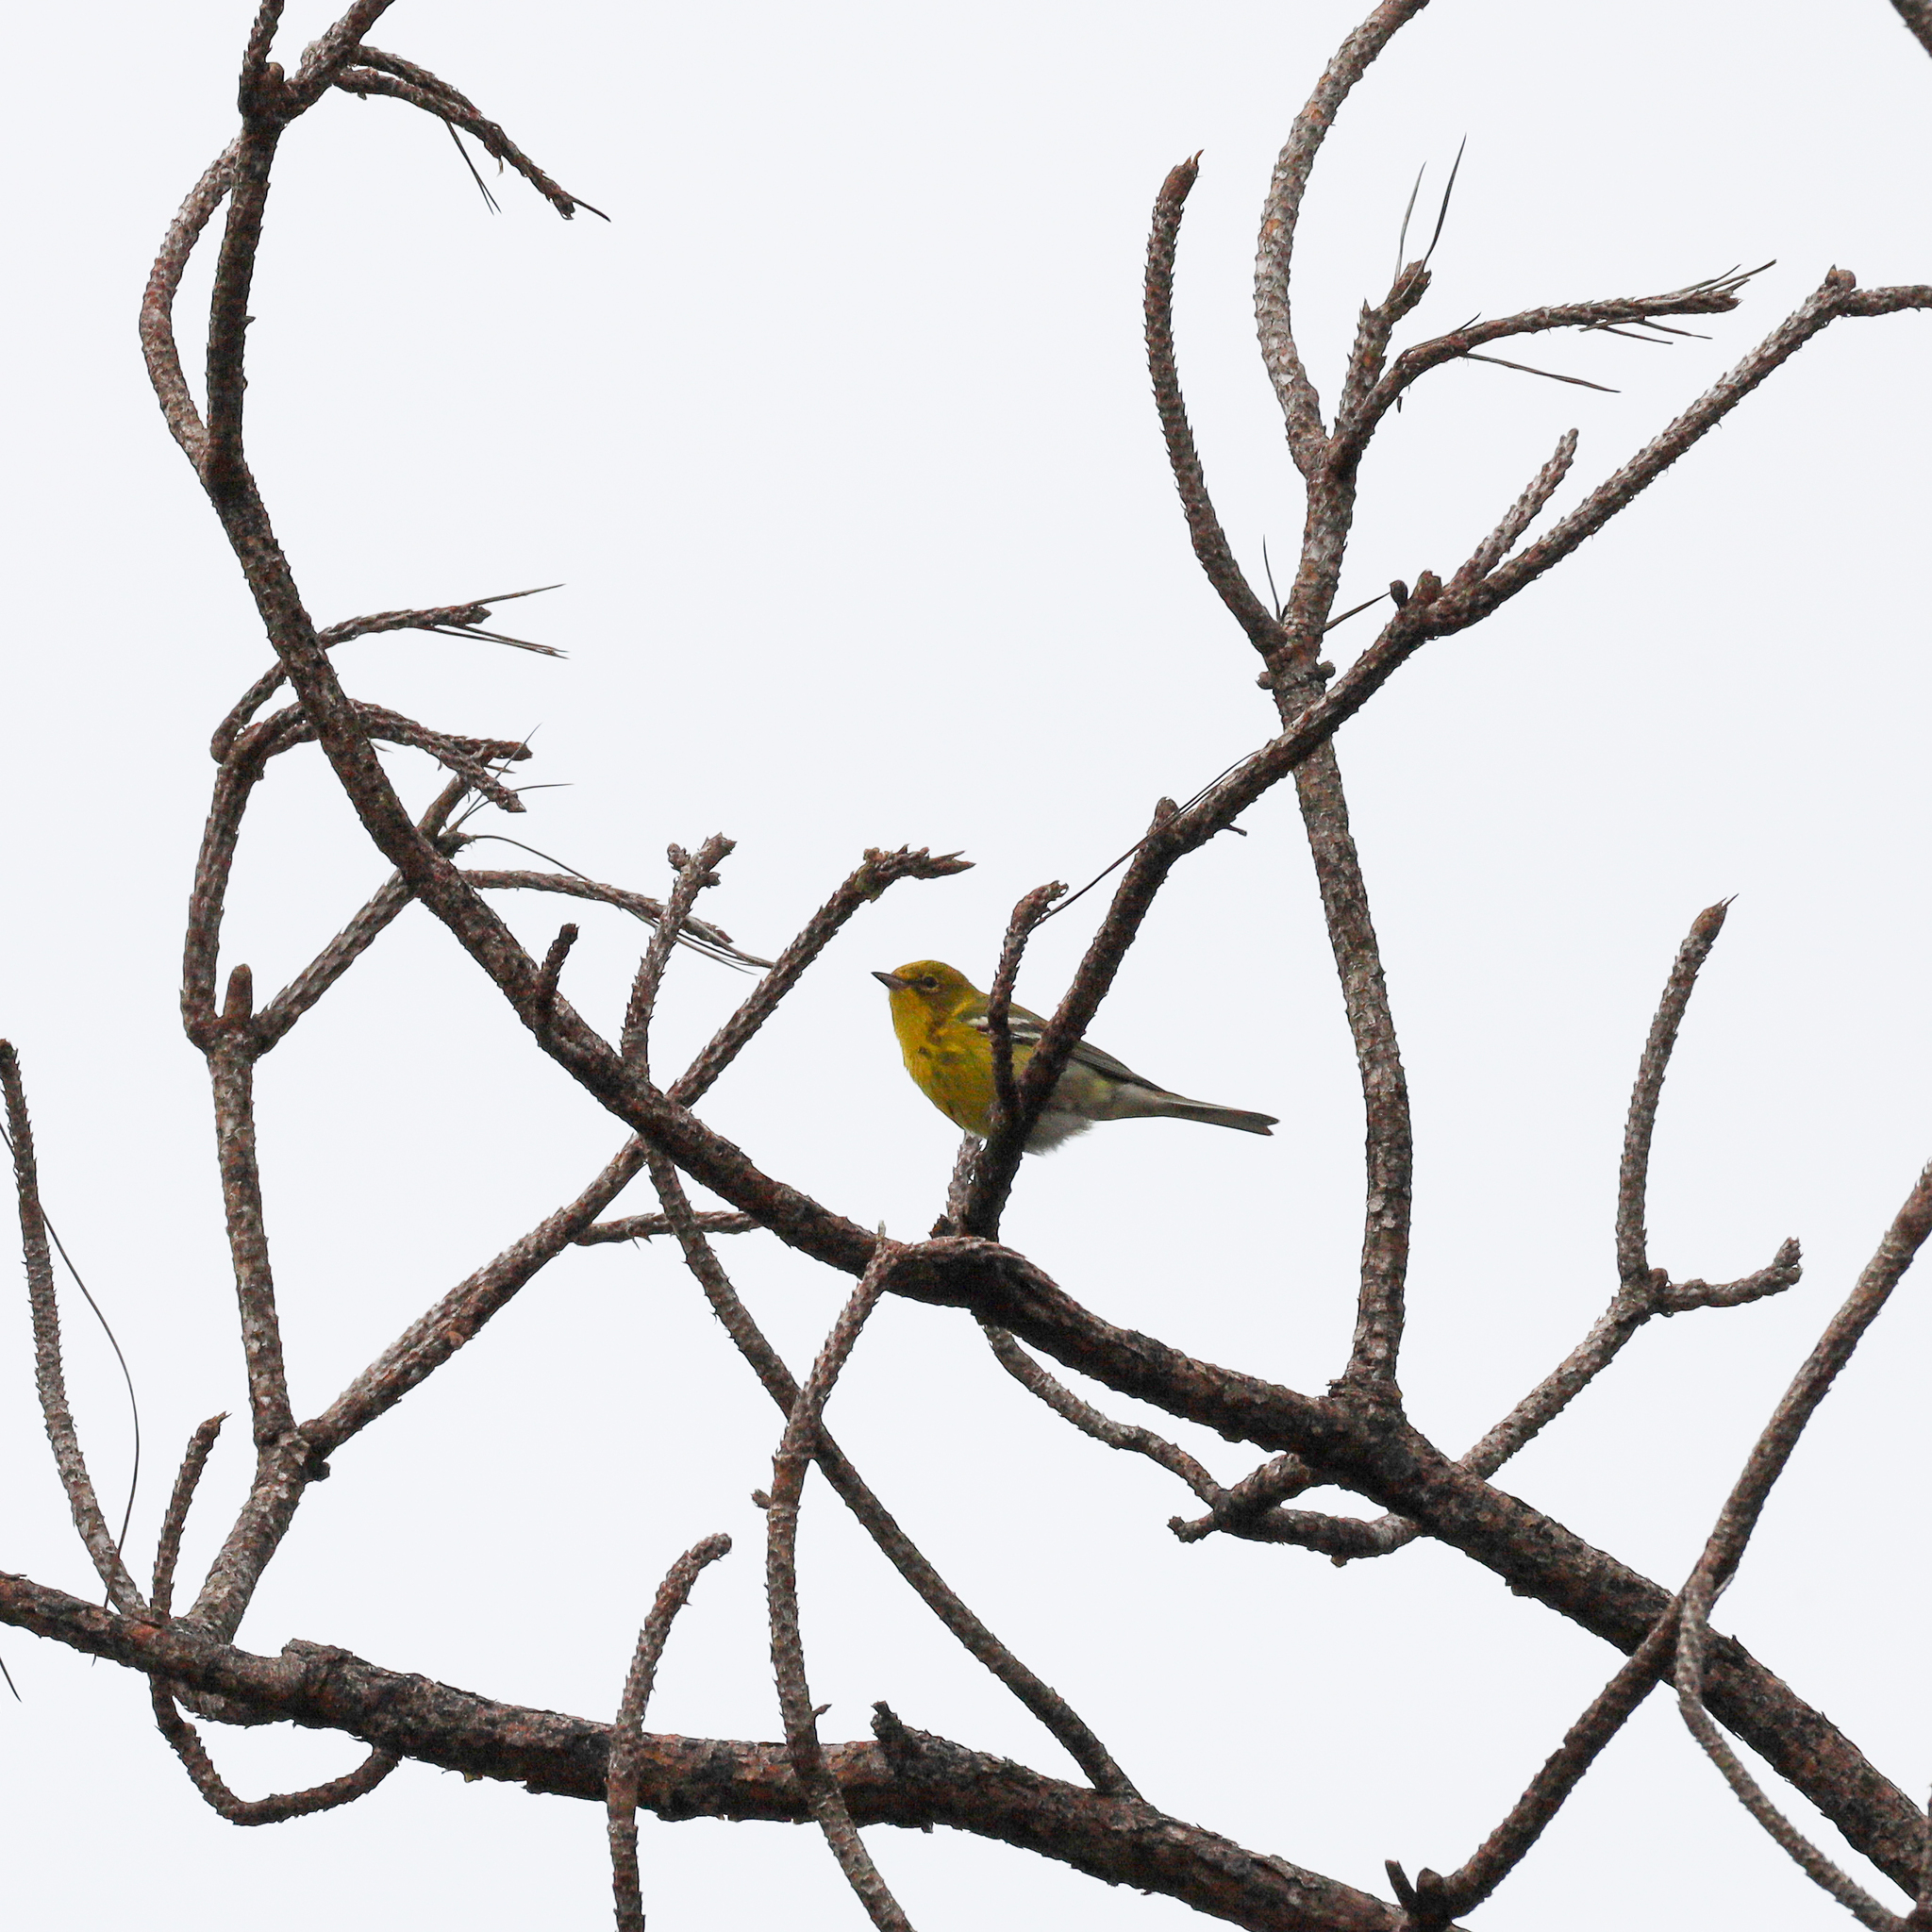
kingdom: Animalia
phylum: Chordata
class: Aves
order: Passeriformes
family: Parulidae
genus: Setophaga
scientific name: Setophaga pinus
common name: Pine warbler
